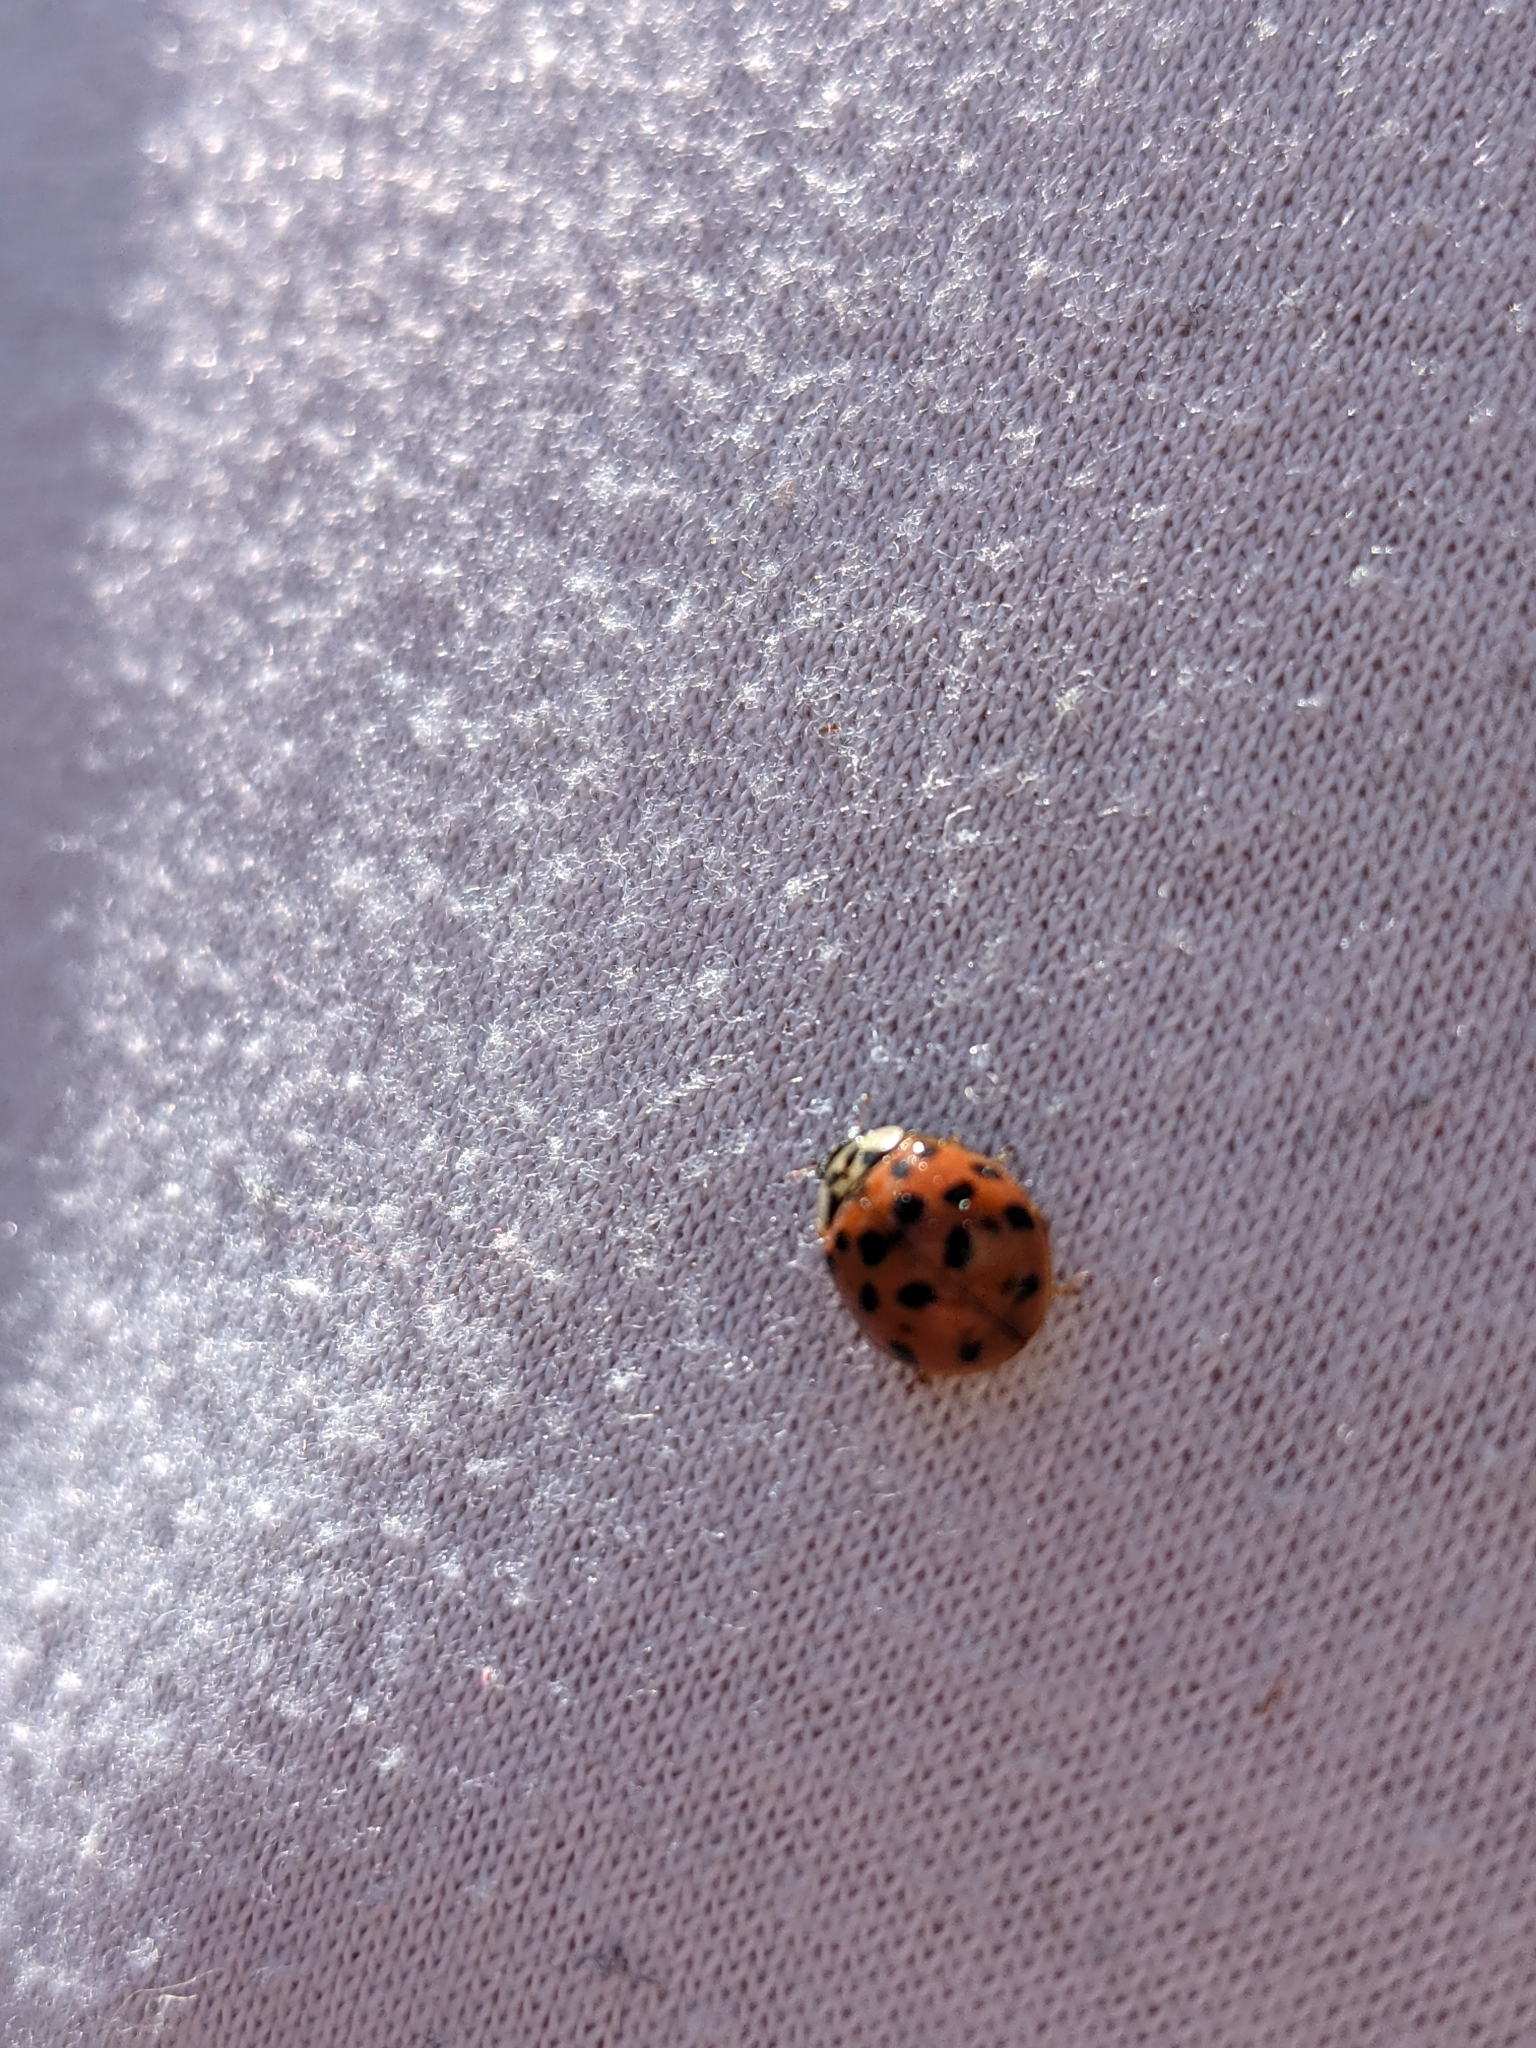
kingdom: Animalia
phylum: Arthropoda
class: Insecta
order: Coleoptera
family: Coccinellidae
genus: Harmonia
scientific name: Harmonia axyridis
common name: Harlequin ladybird
